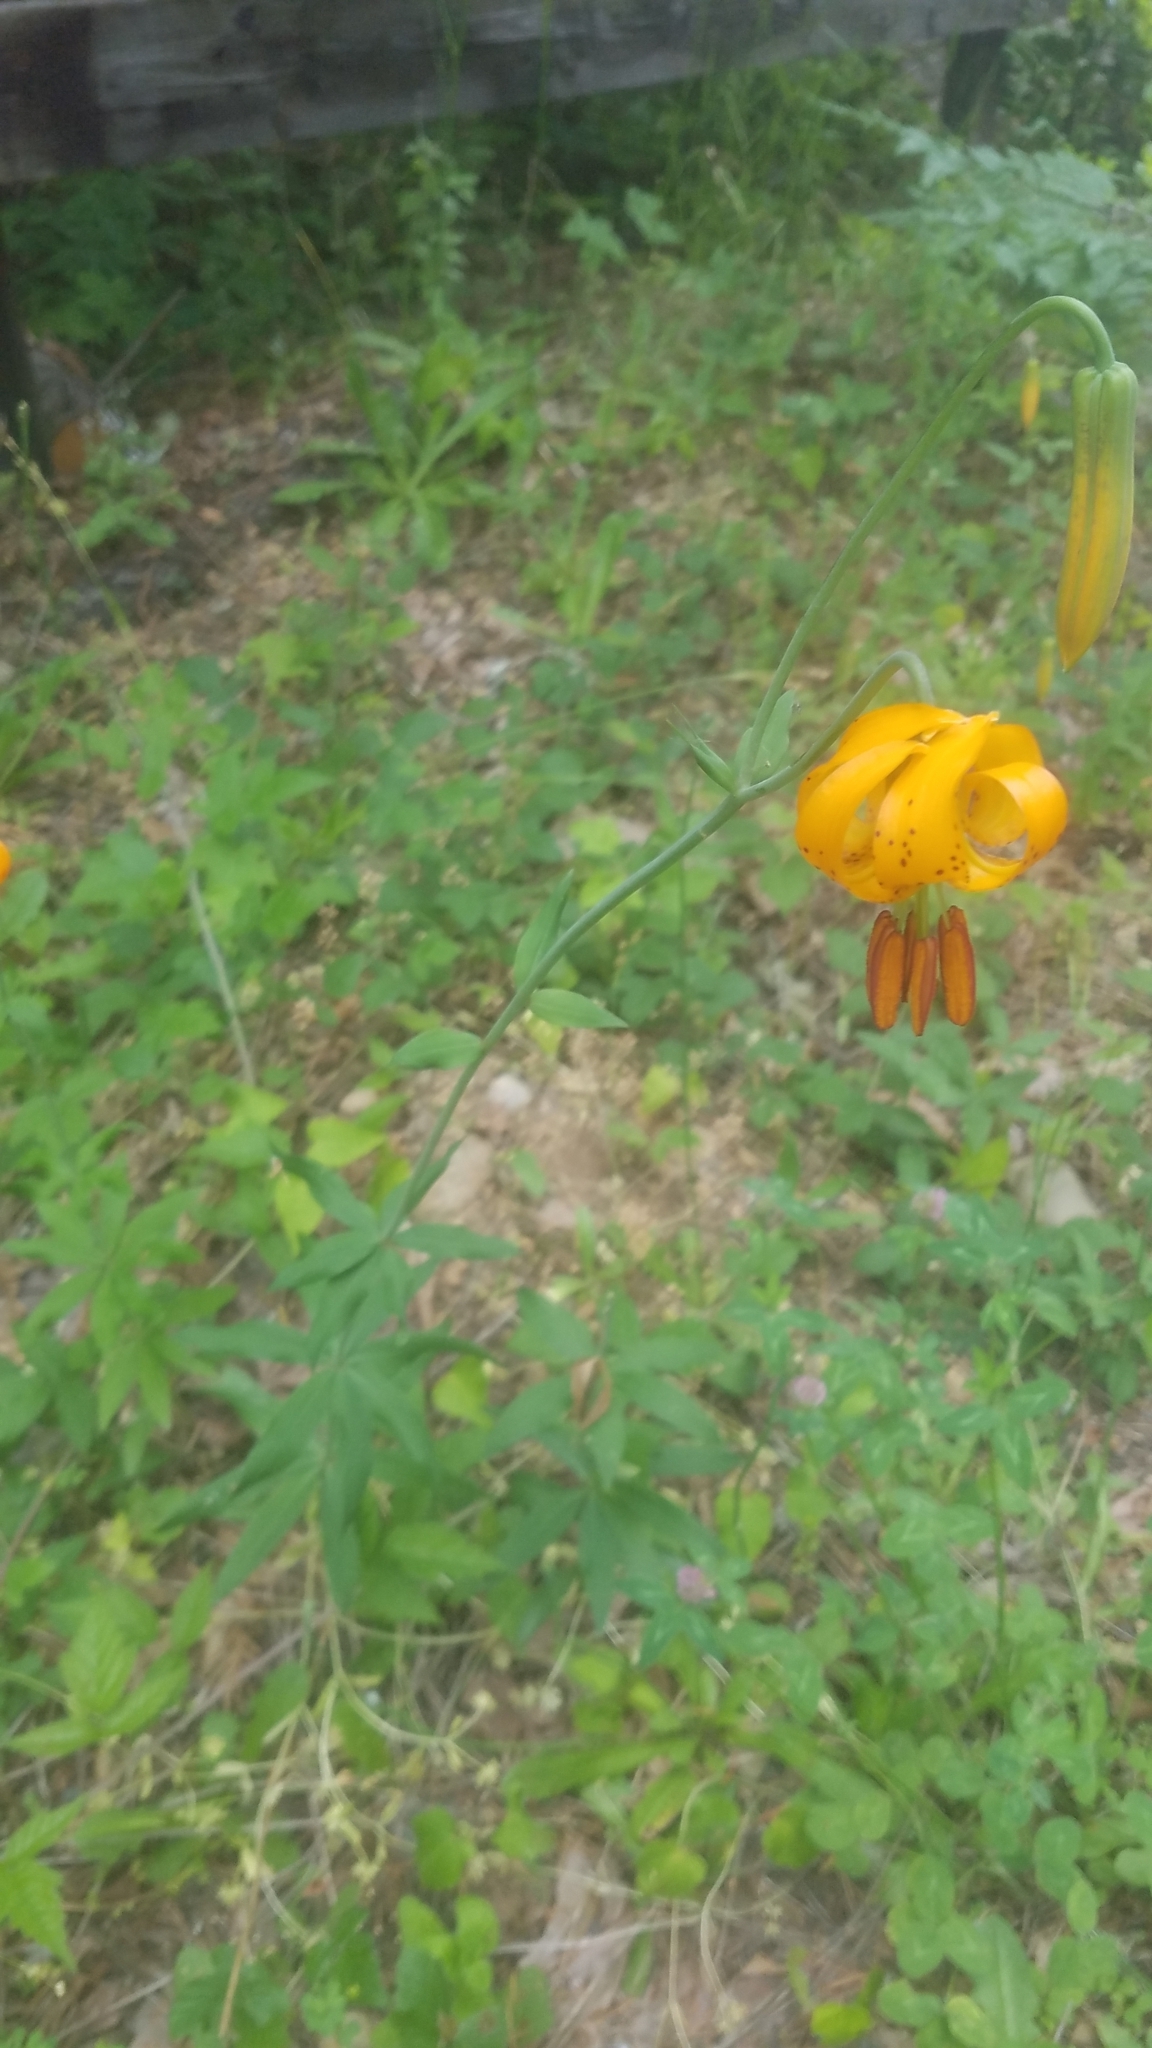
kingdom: Plantae
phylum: Tracheophyta
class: Liliopsida
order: Liliales
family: Liliaceae
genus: Lilium
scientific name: Lilium columbianum
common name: Columbia lily
